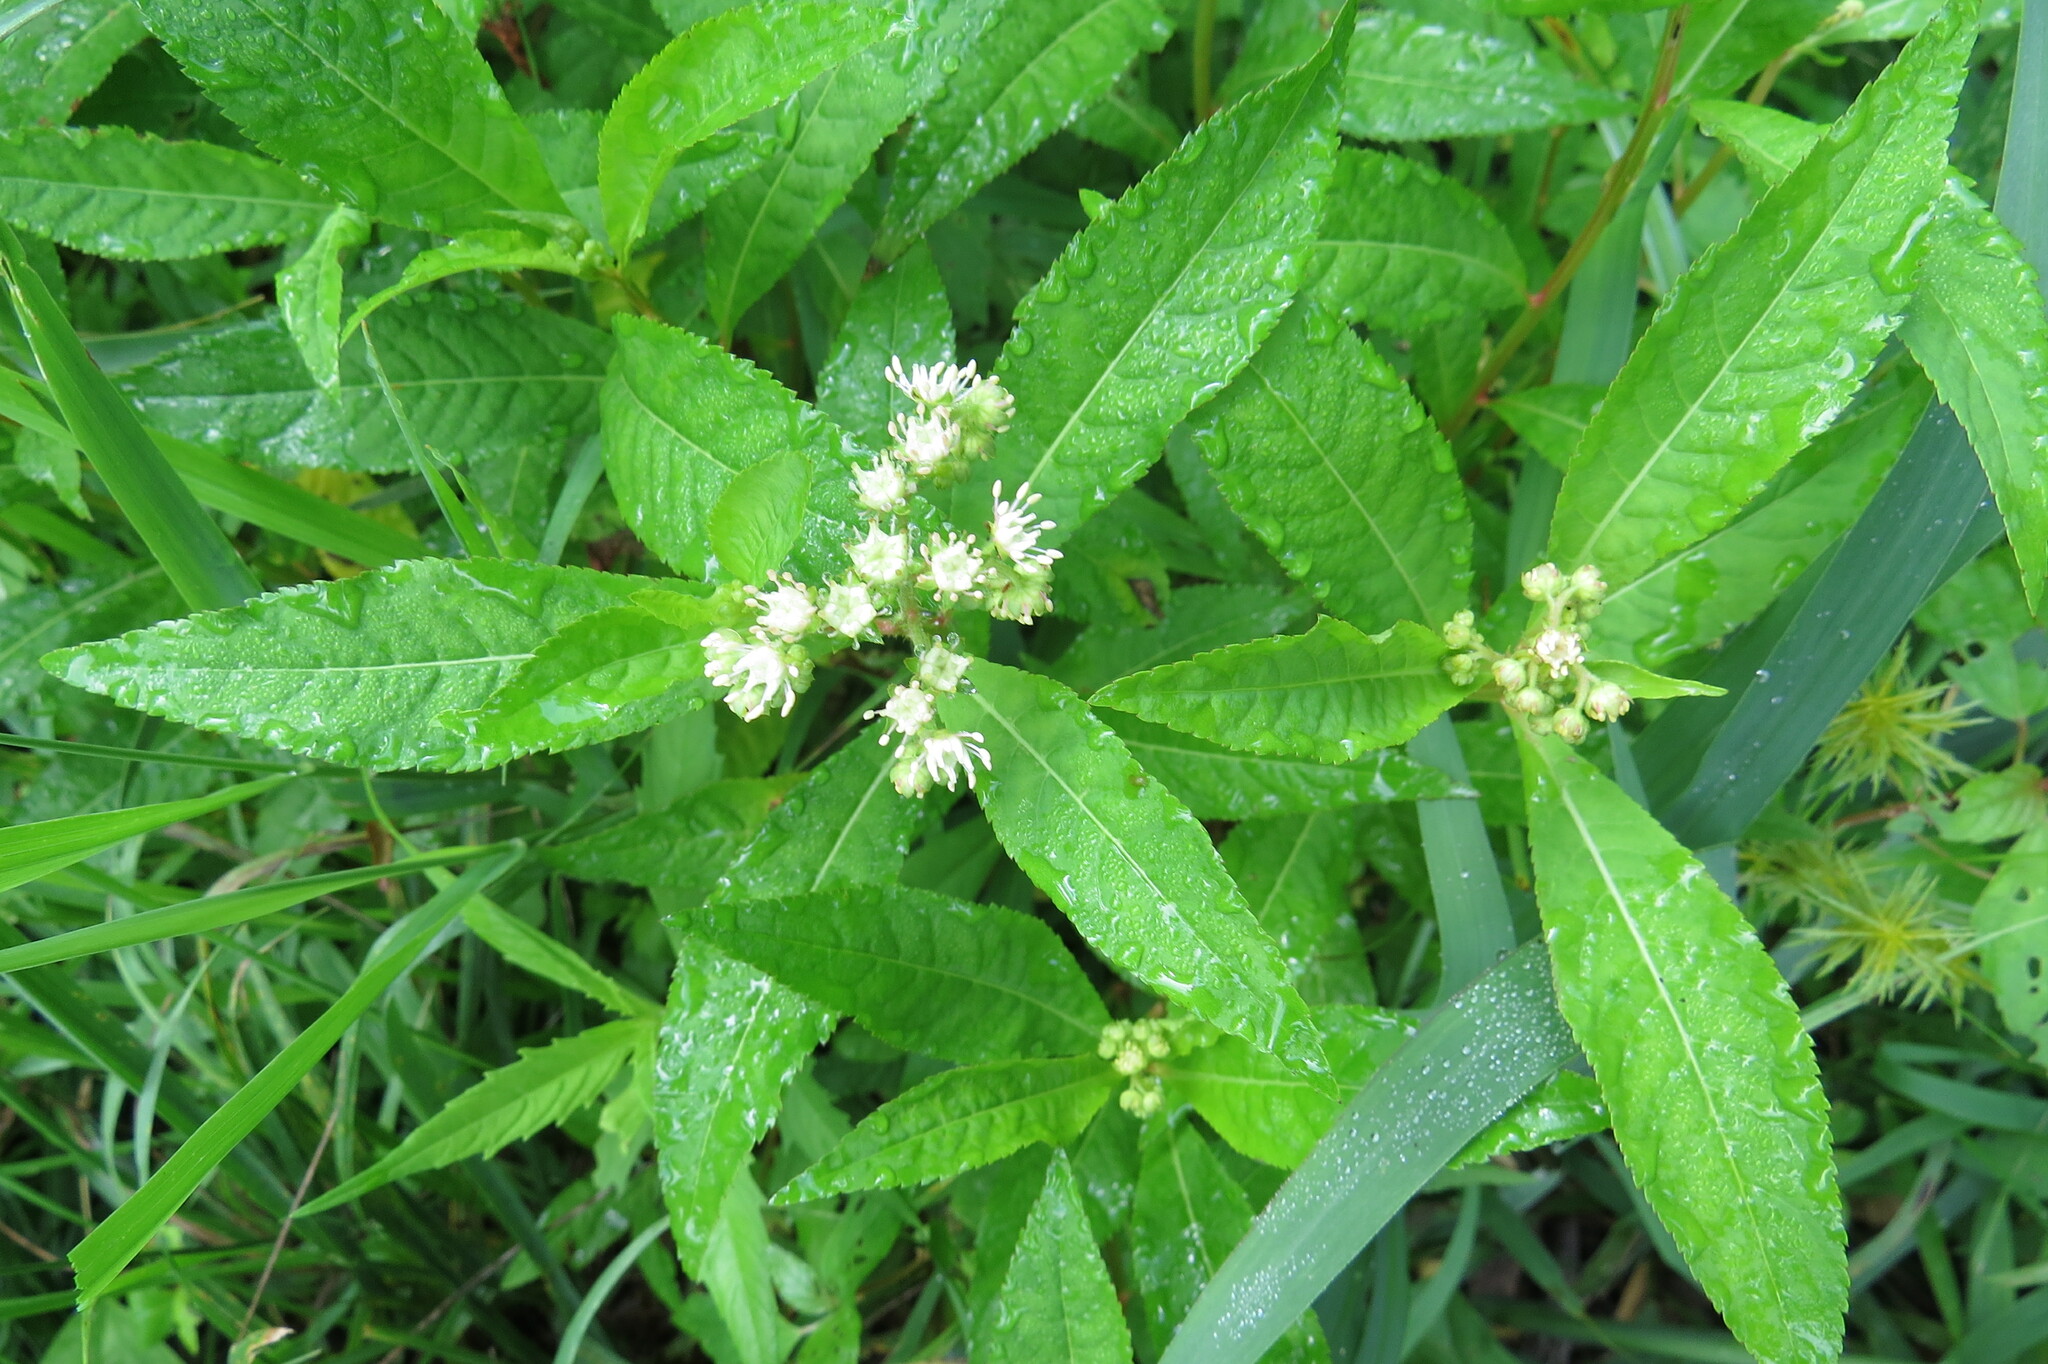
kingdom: Plantae
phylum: Tracheophyta
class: Magnoliopsida
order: Saxifragales
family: Penthoraceae
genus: Penthorum
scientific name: Penthorum sedoides
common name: Ditch stonecrop
